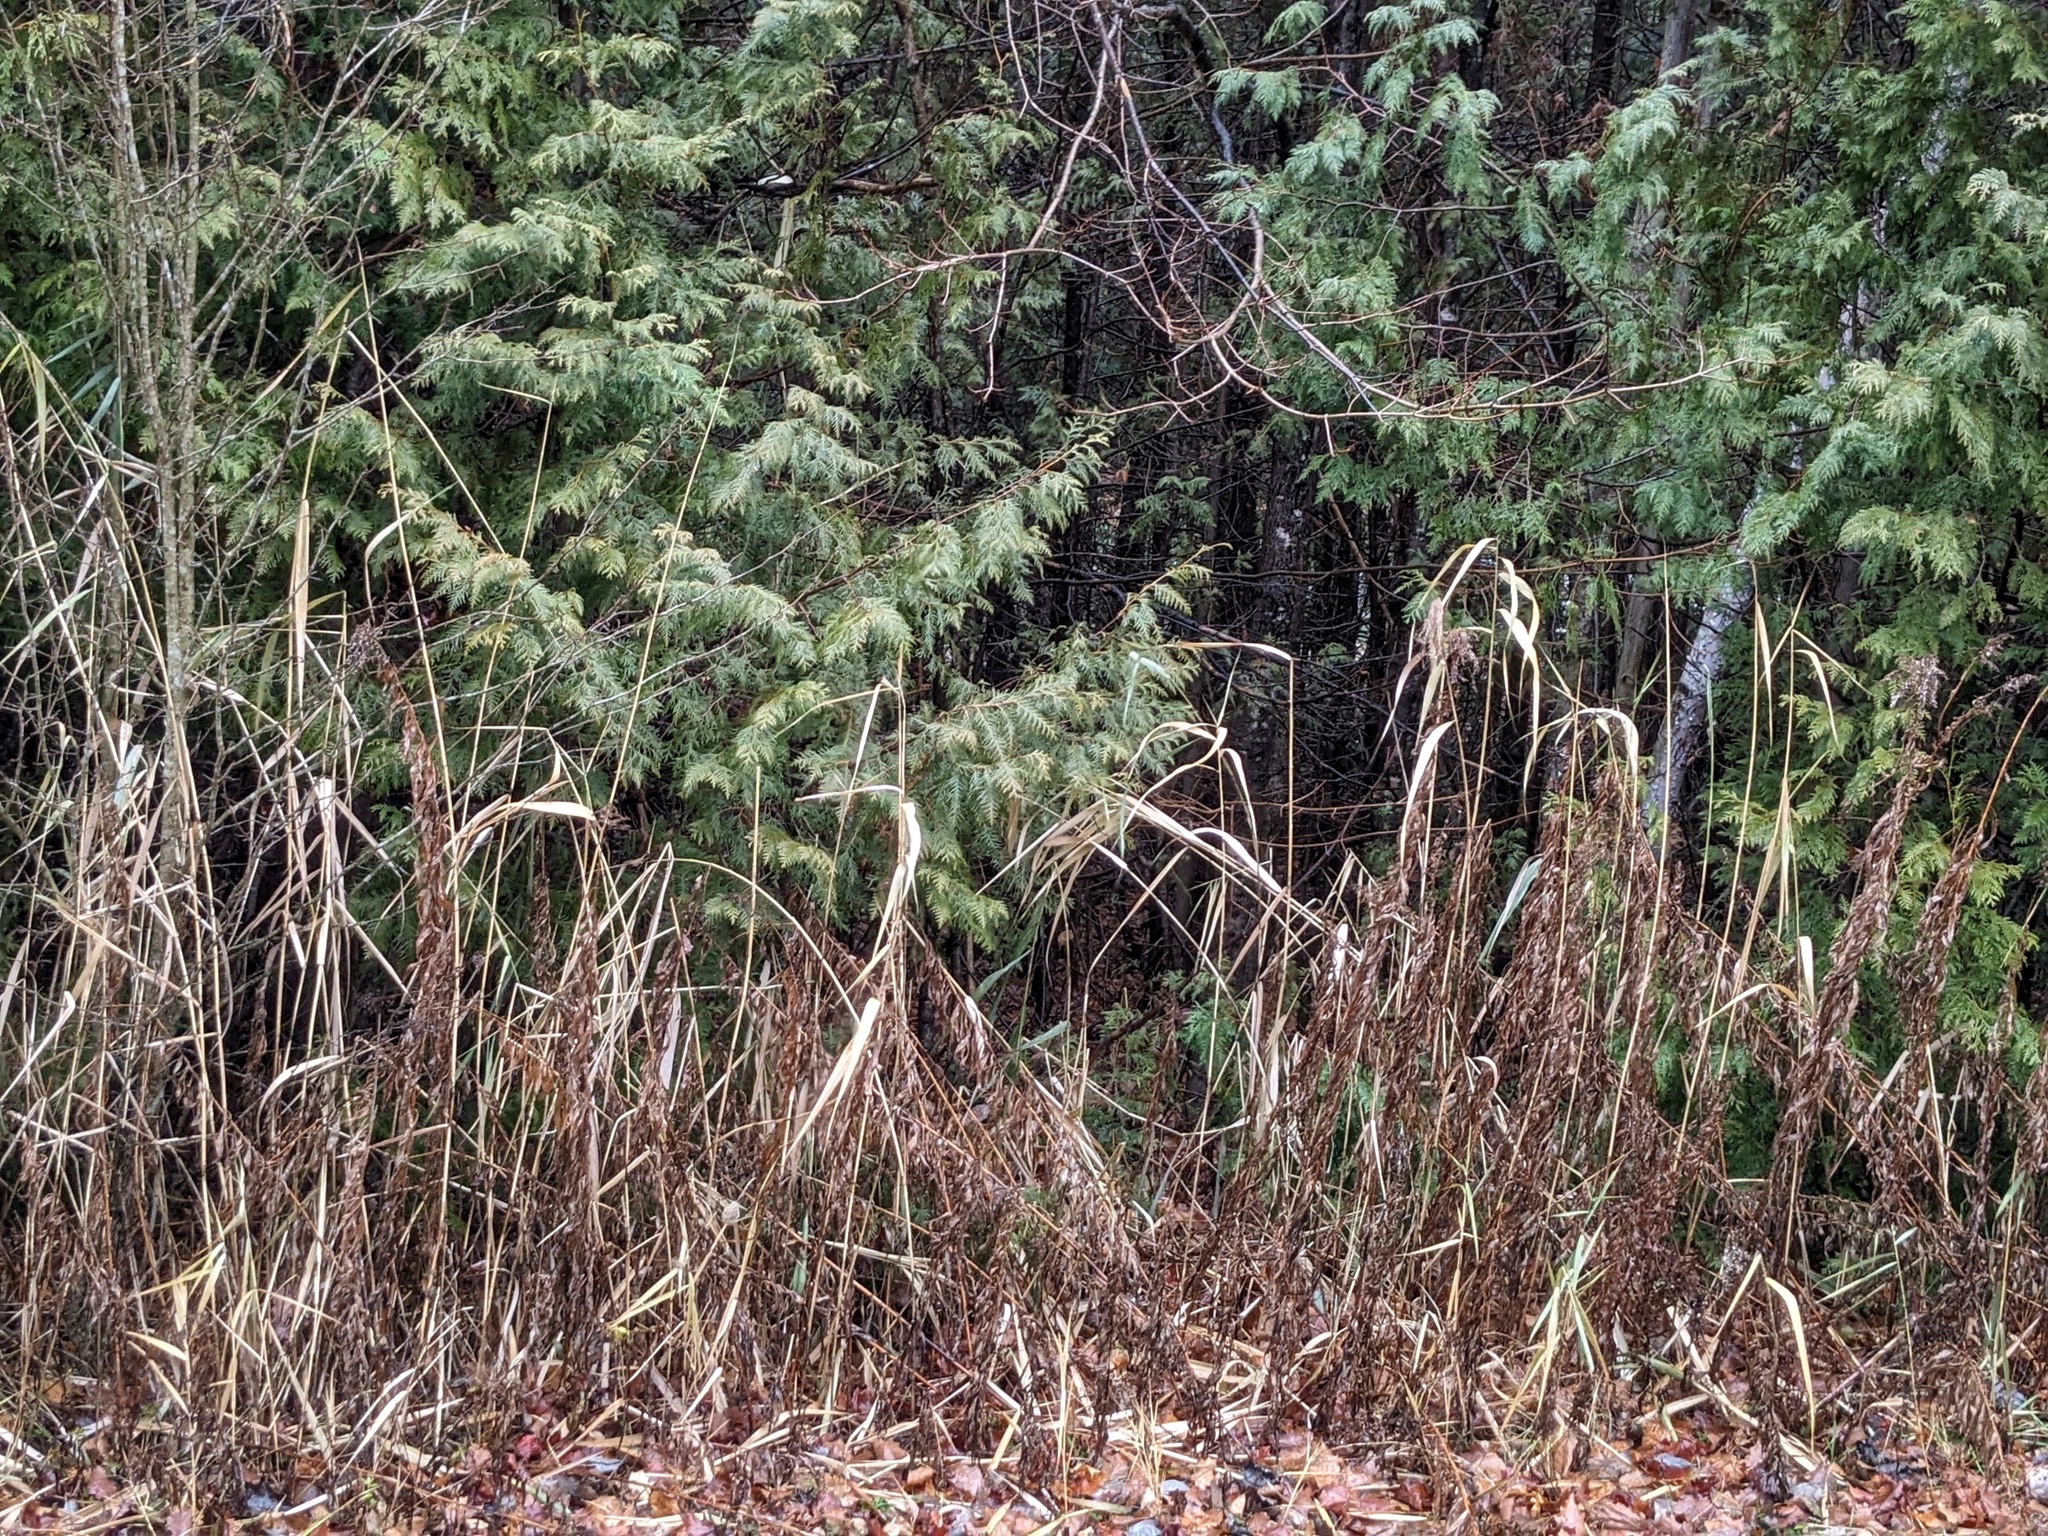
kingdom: Plantae
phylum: Tracheophyta
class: Liliopsida
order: Poales
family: Poaceae
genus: Phragmites
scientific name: Phragmites australis
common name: Common reed
